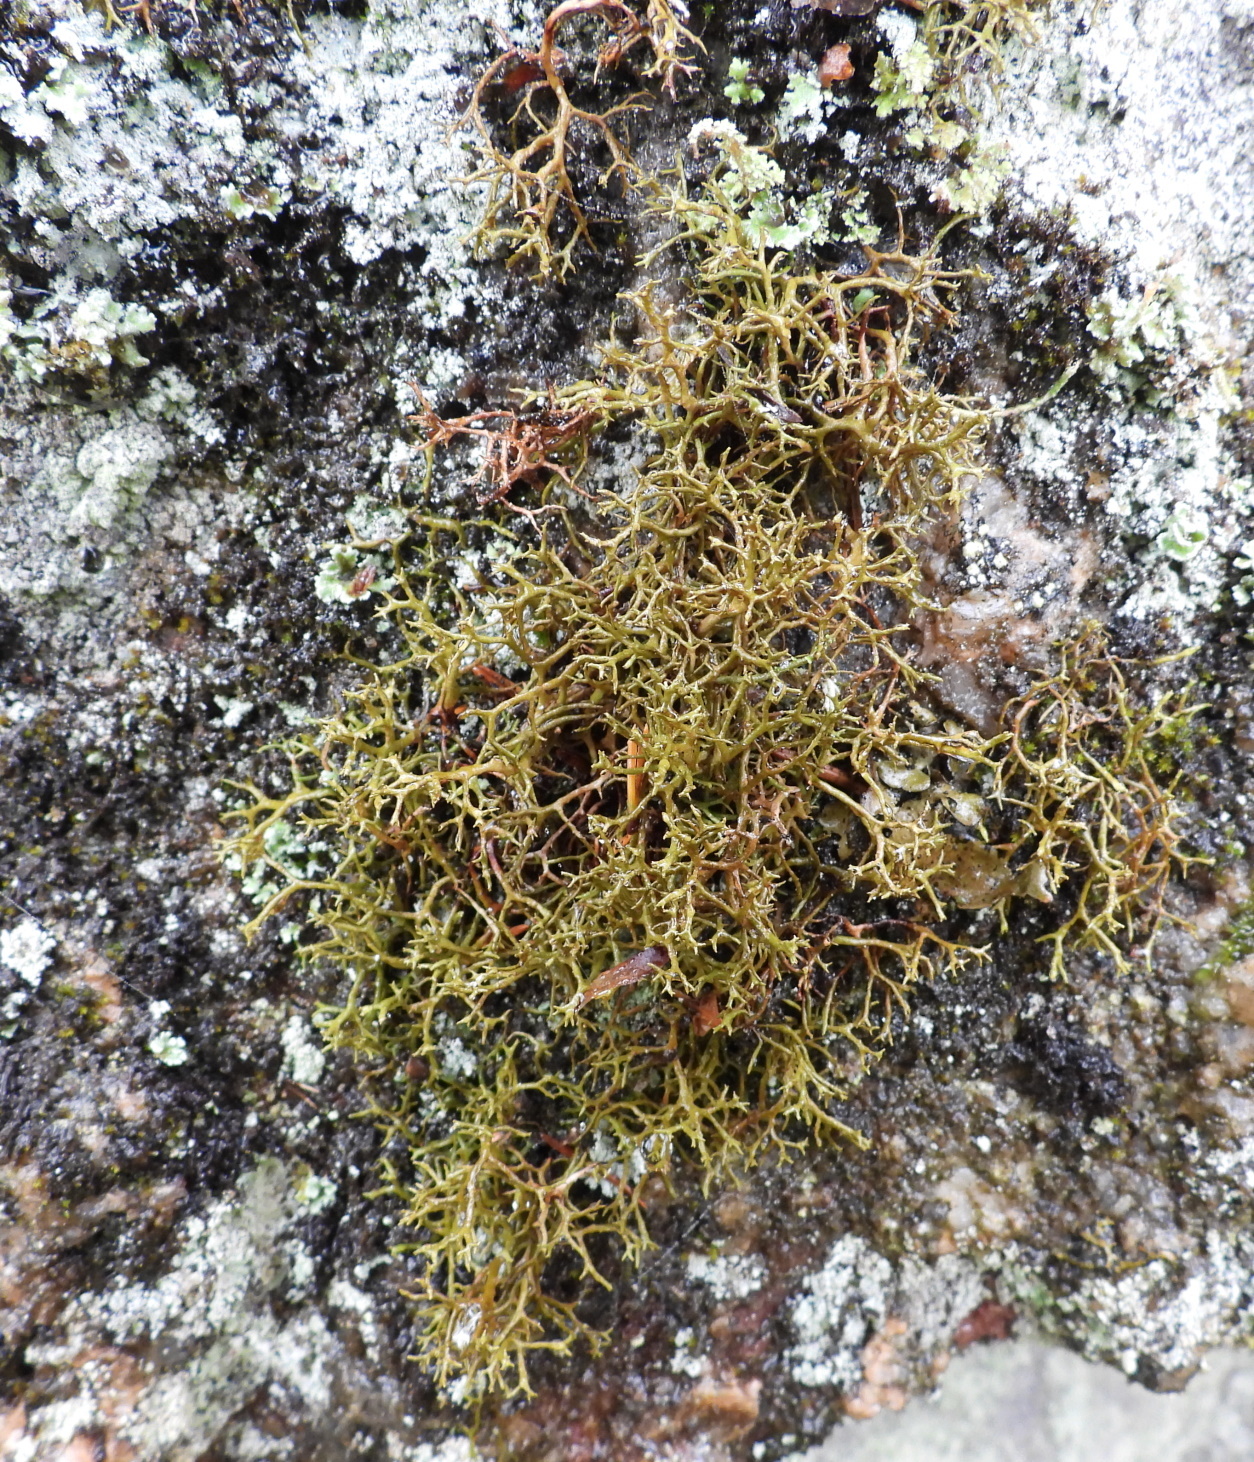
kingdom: Fungi
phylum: Ascomycota
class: Lecanoromycetes
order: Lecanorales
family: Parmeliaceae
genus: Cetraria
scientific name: Cetraria muricata
